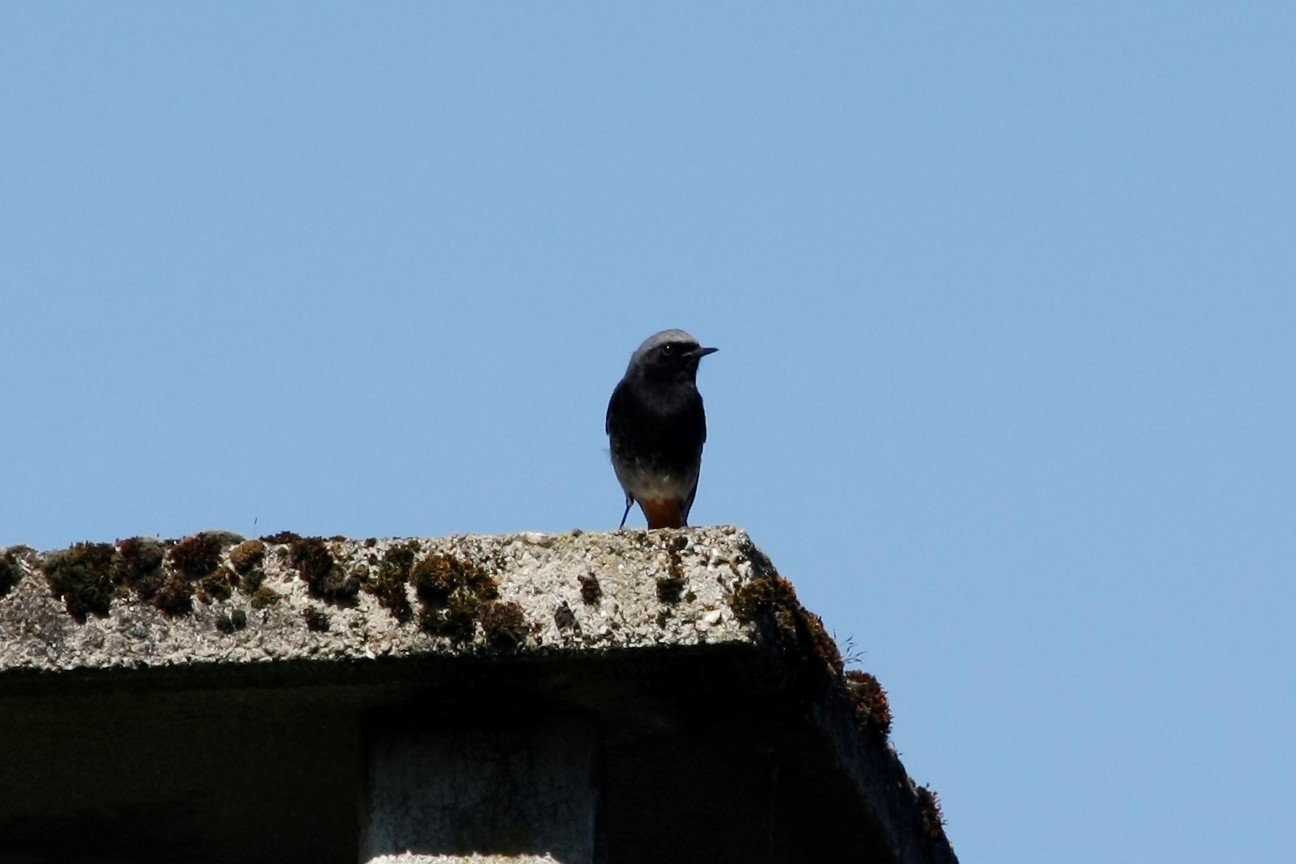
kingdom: Animalia
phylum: Chordata
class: Aves
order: Passeriformes
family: Muscicapidae
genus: Phoenicurus
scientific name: Phoenicurus ochruros
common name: Black redstart
